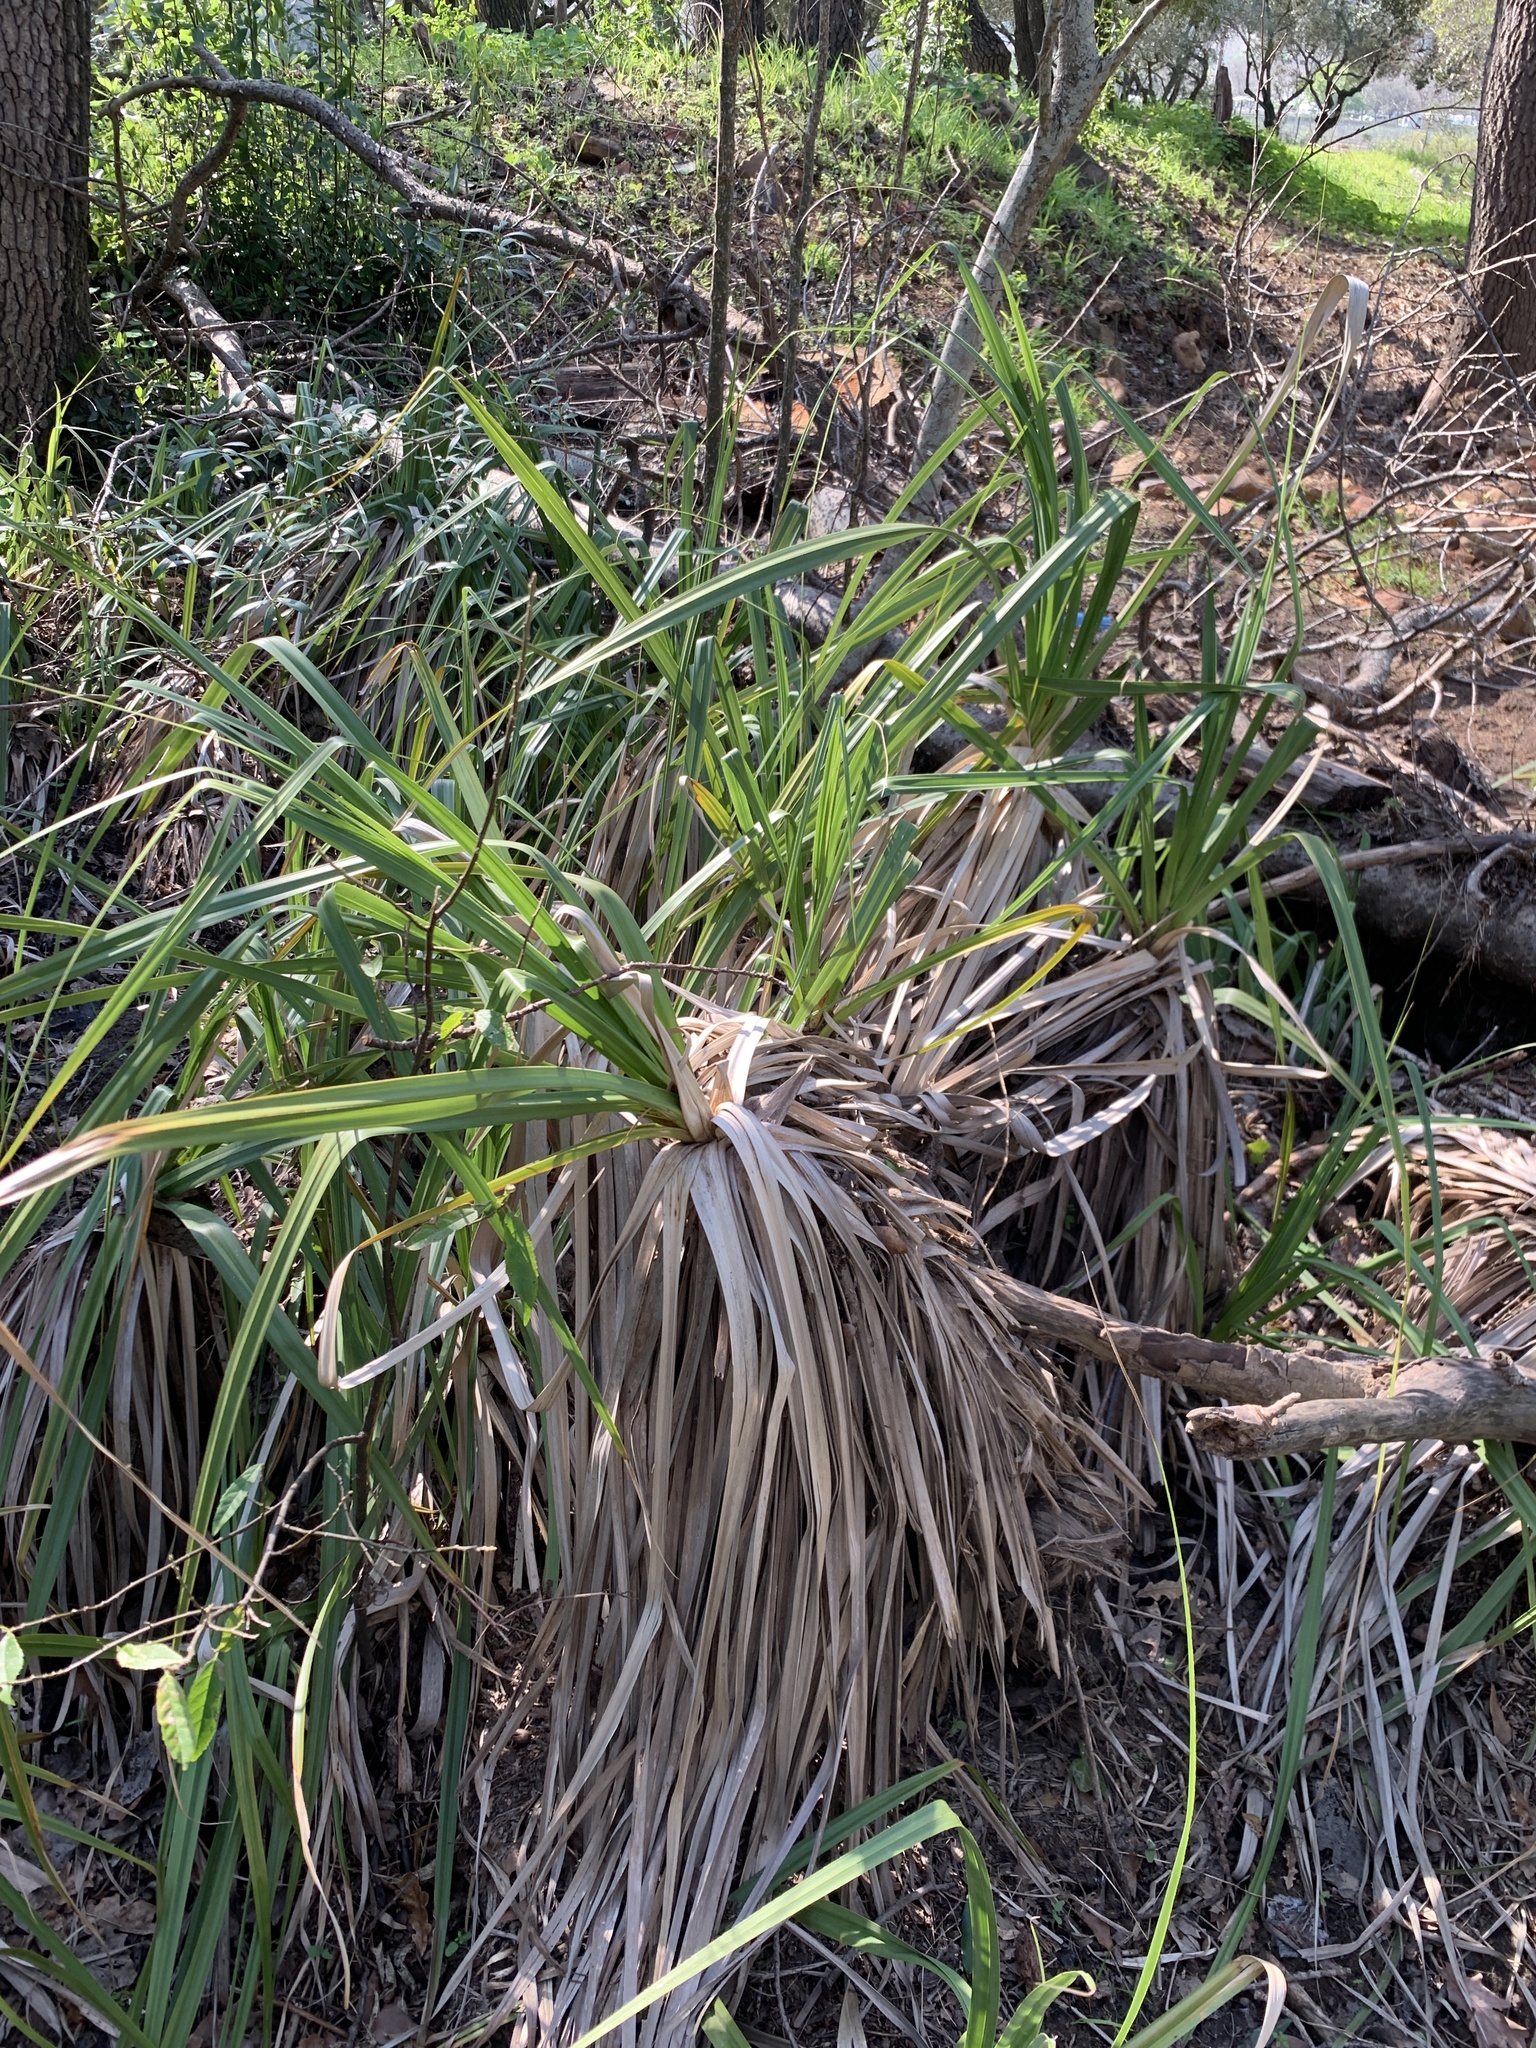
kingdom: Plantae
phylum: Tracheophyta
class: Liliopsida
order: Poales
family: Thurniaceae
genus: Prionium
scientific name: Prionium serratum
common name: Palmiet
